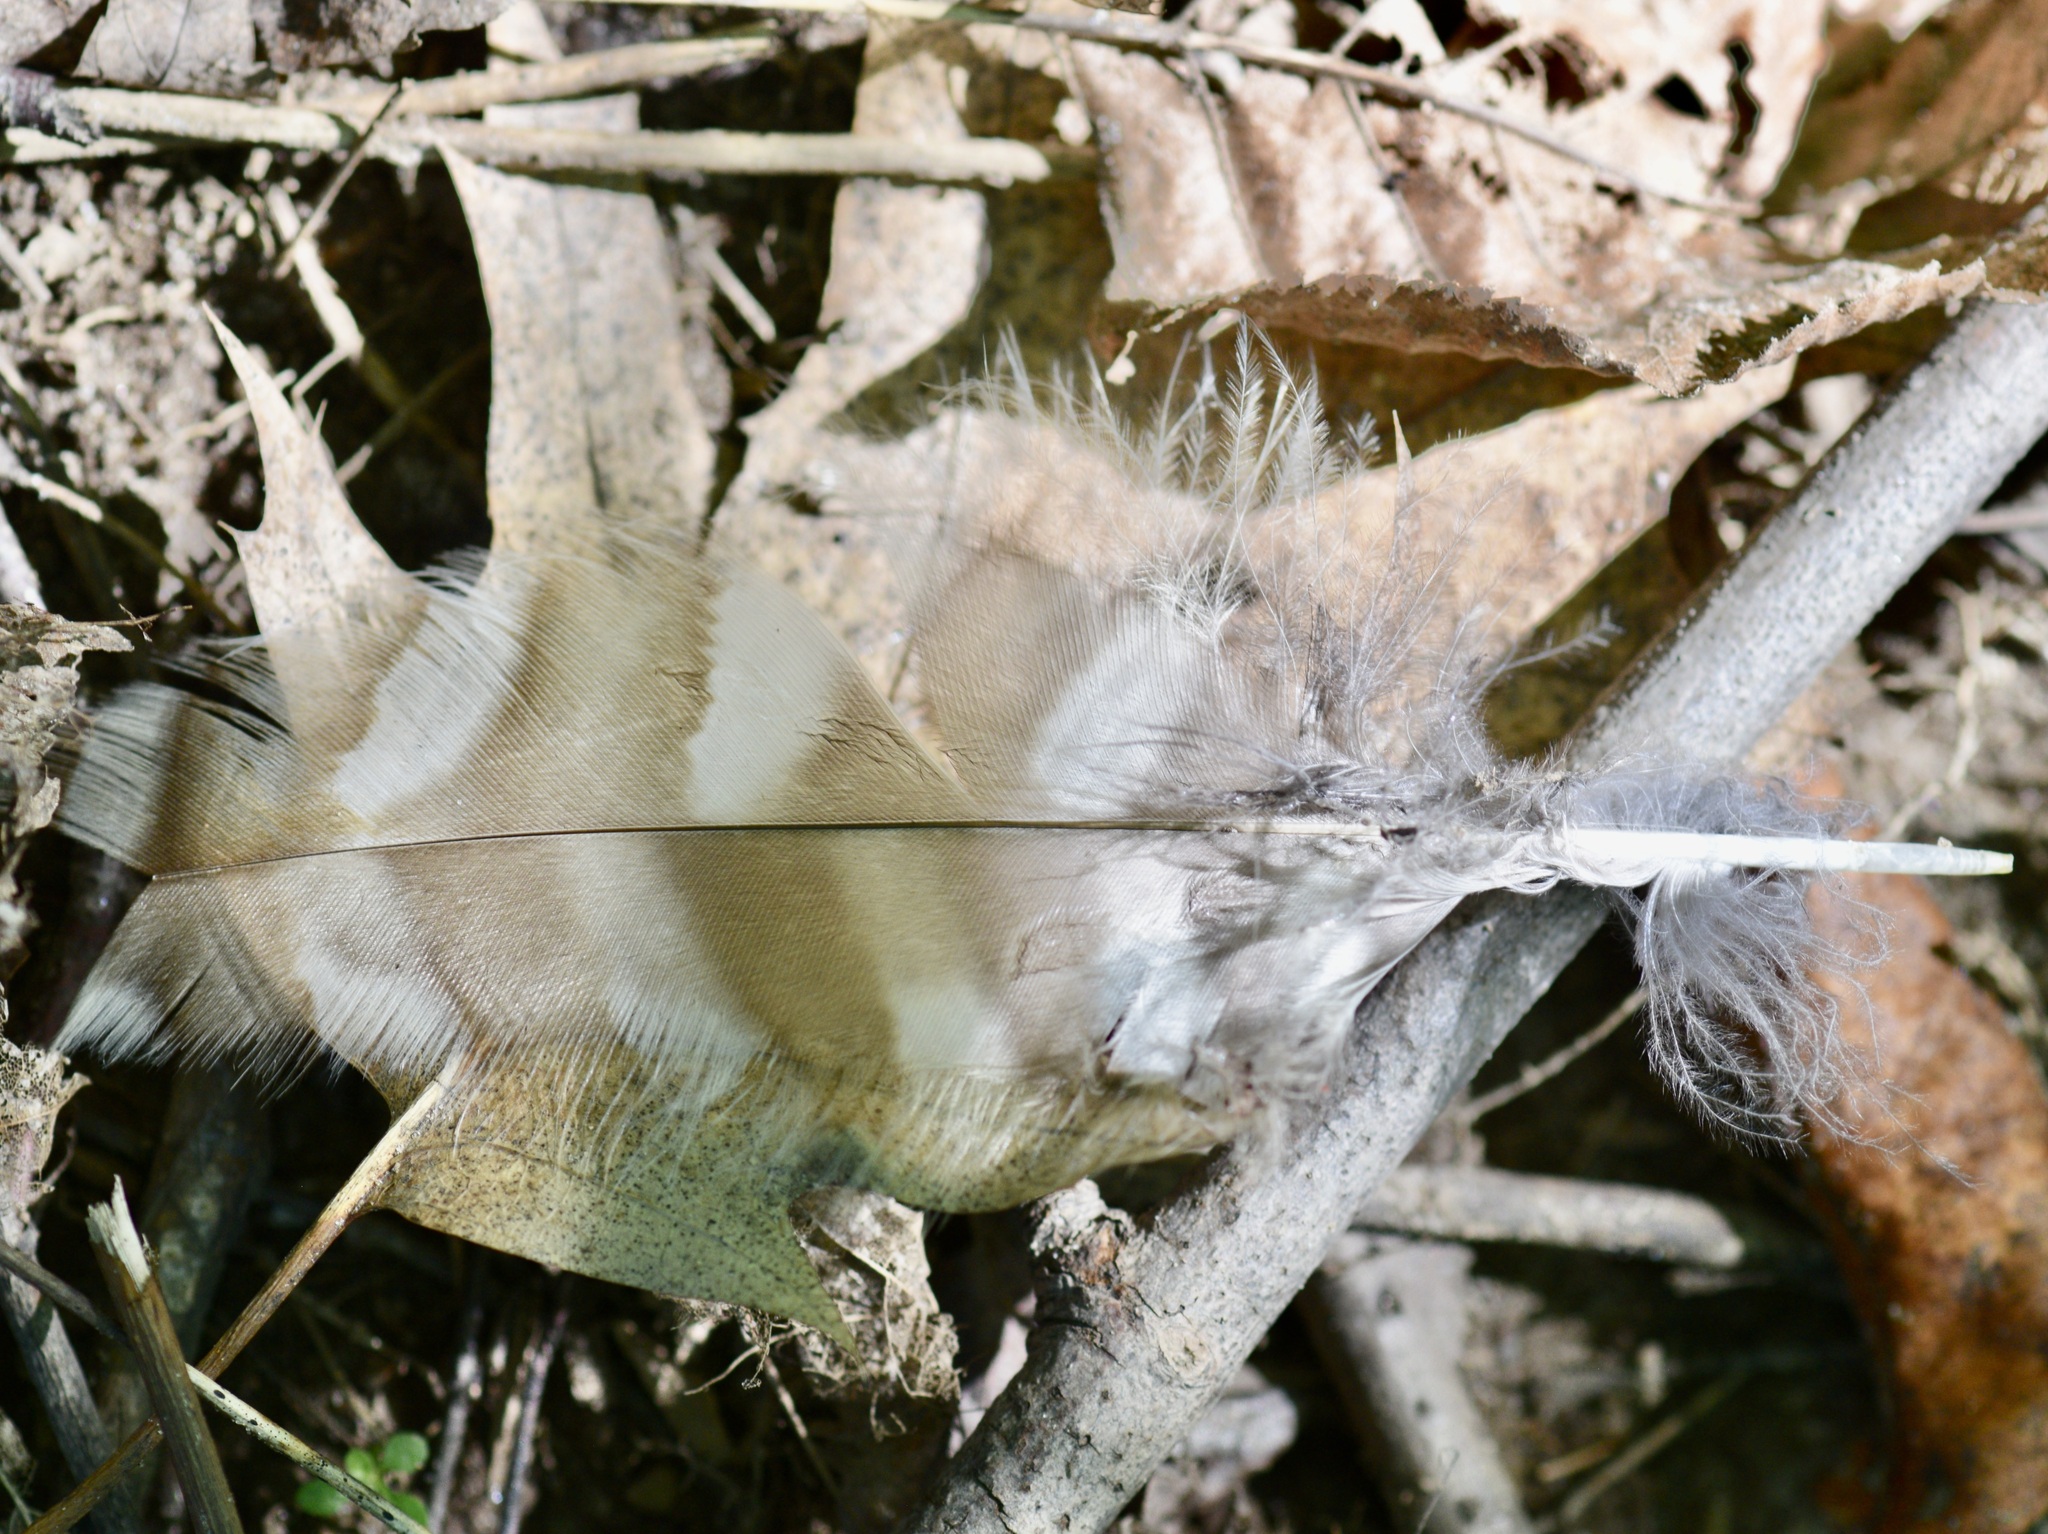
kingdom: Animalia
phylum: Chordata
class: Aves
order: Strigiformes
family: Strigidae
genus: Strix
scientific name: Strix varia
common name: Barred owl
